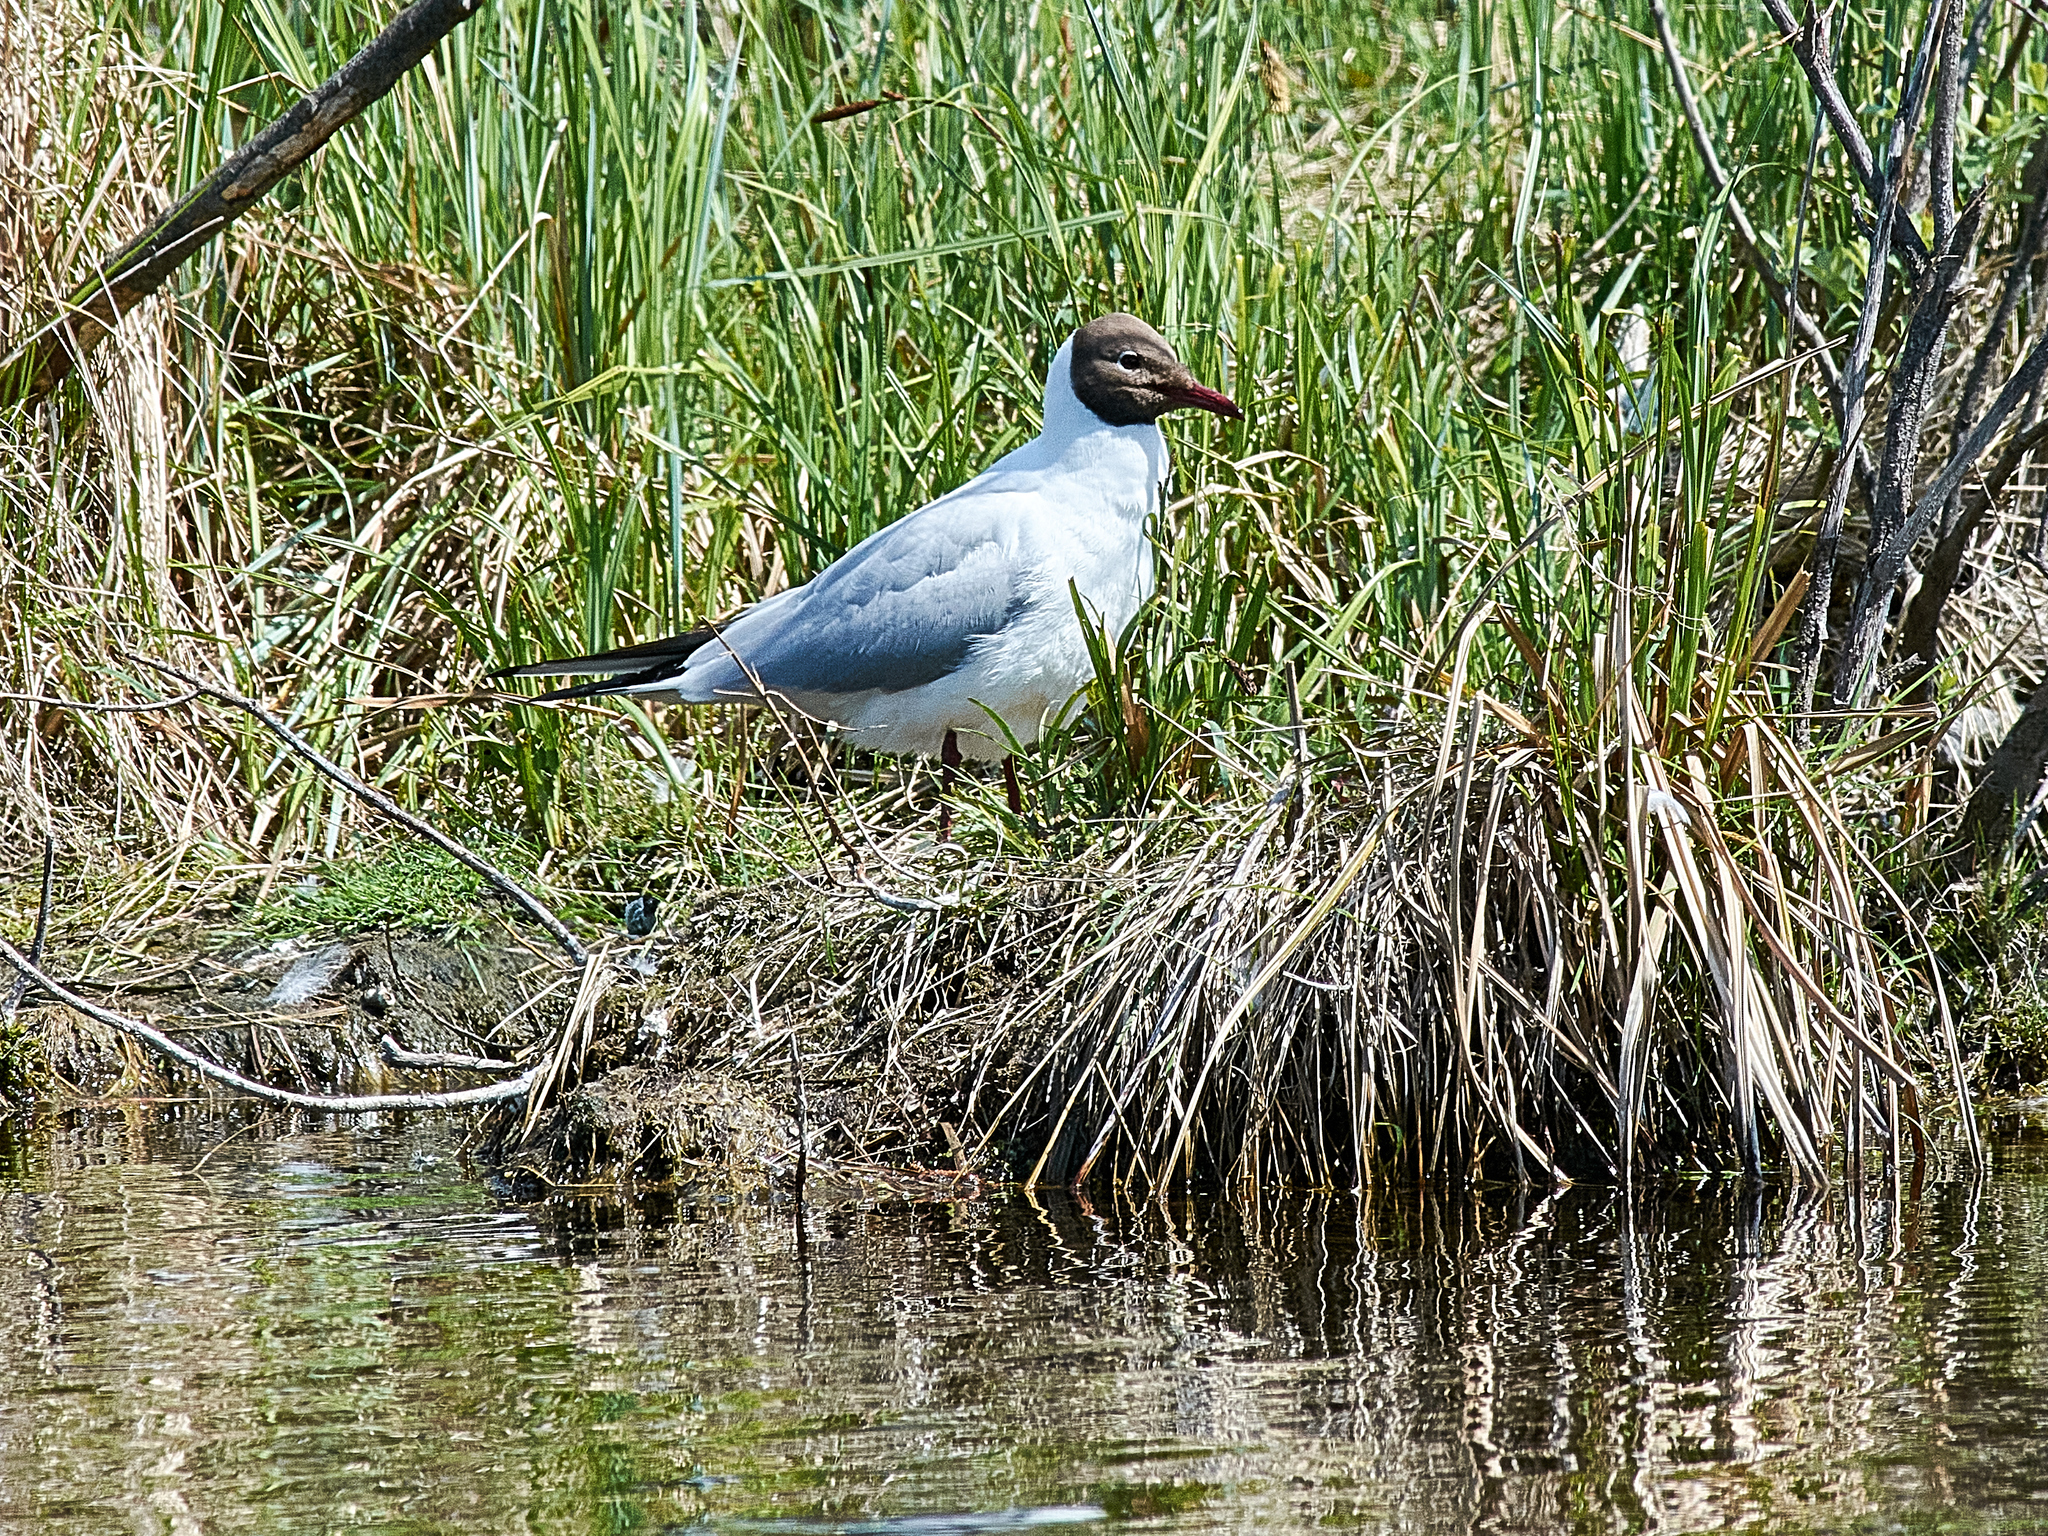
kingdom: Animalia
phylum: Chordata
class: Aves
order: Charadriiformes
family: Laridae
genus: Chroicocephalus
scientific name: Chroicocephalus ridibundus
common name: Black-headed gull
